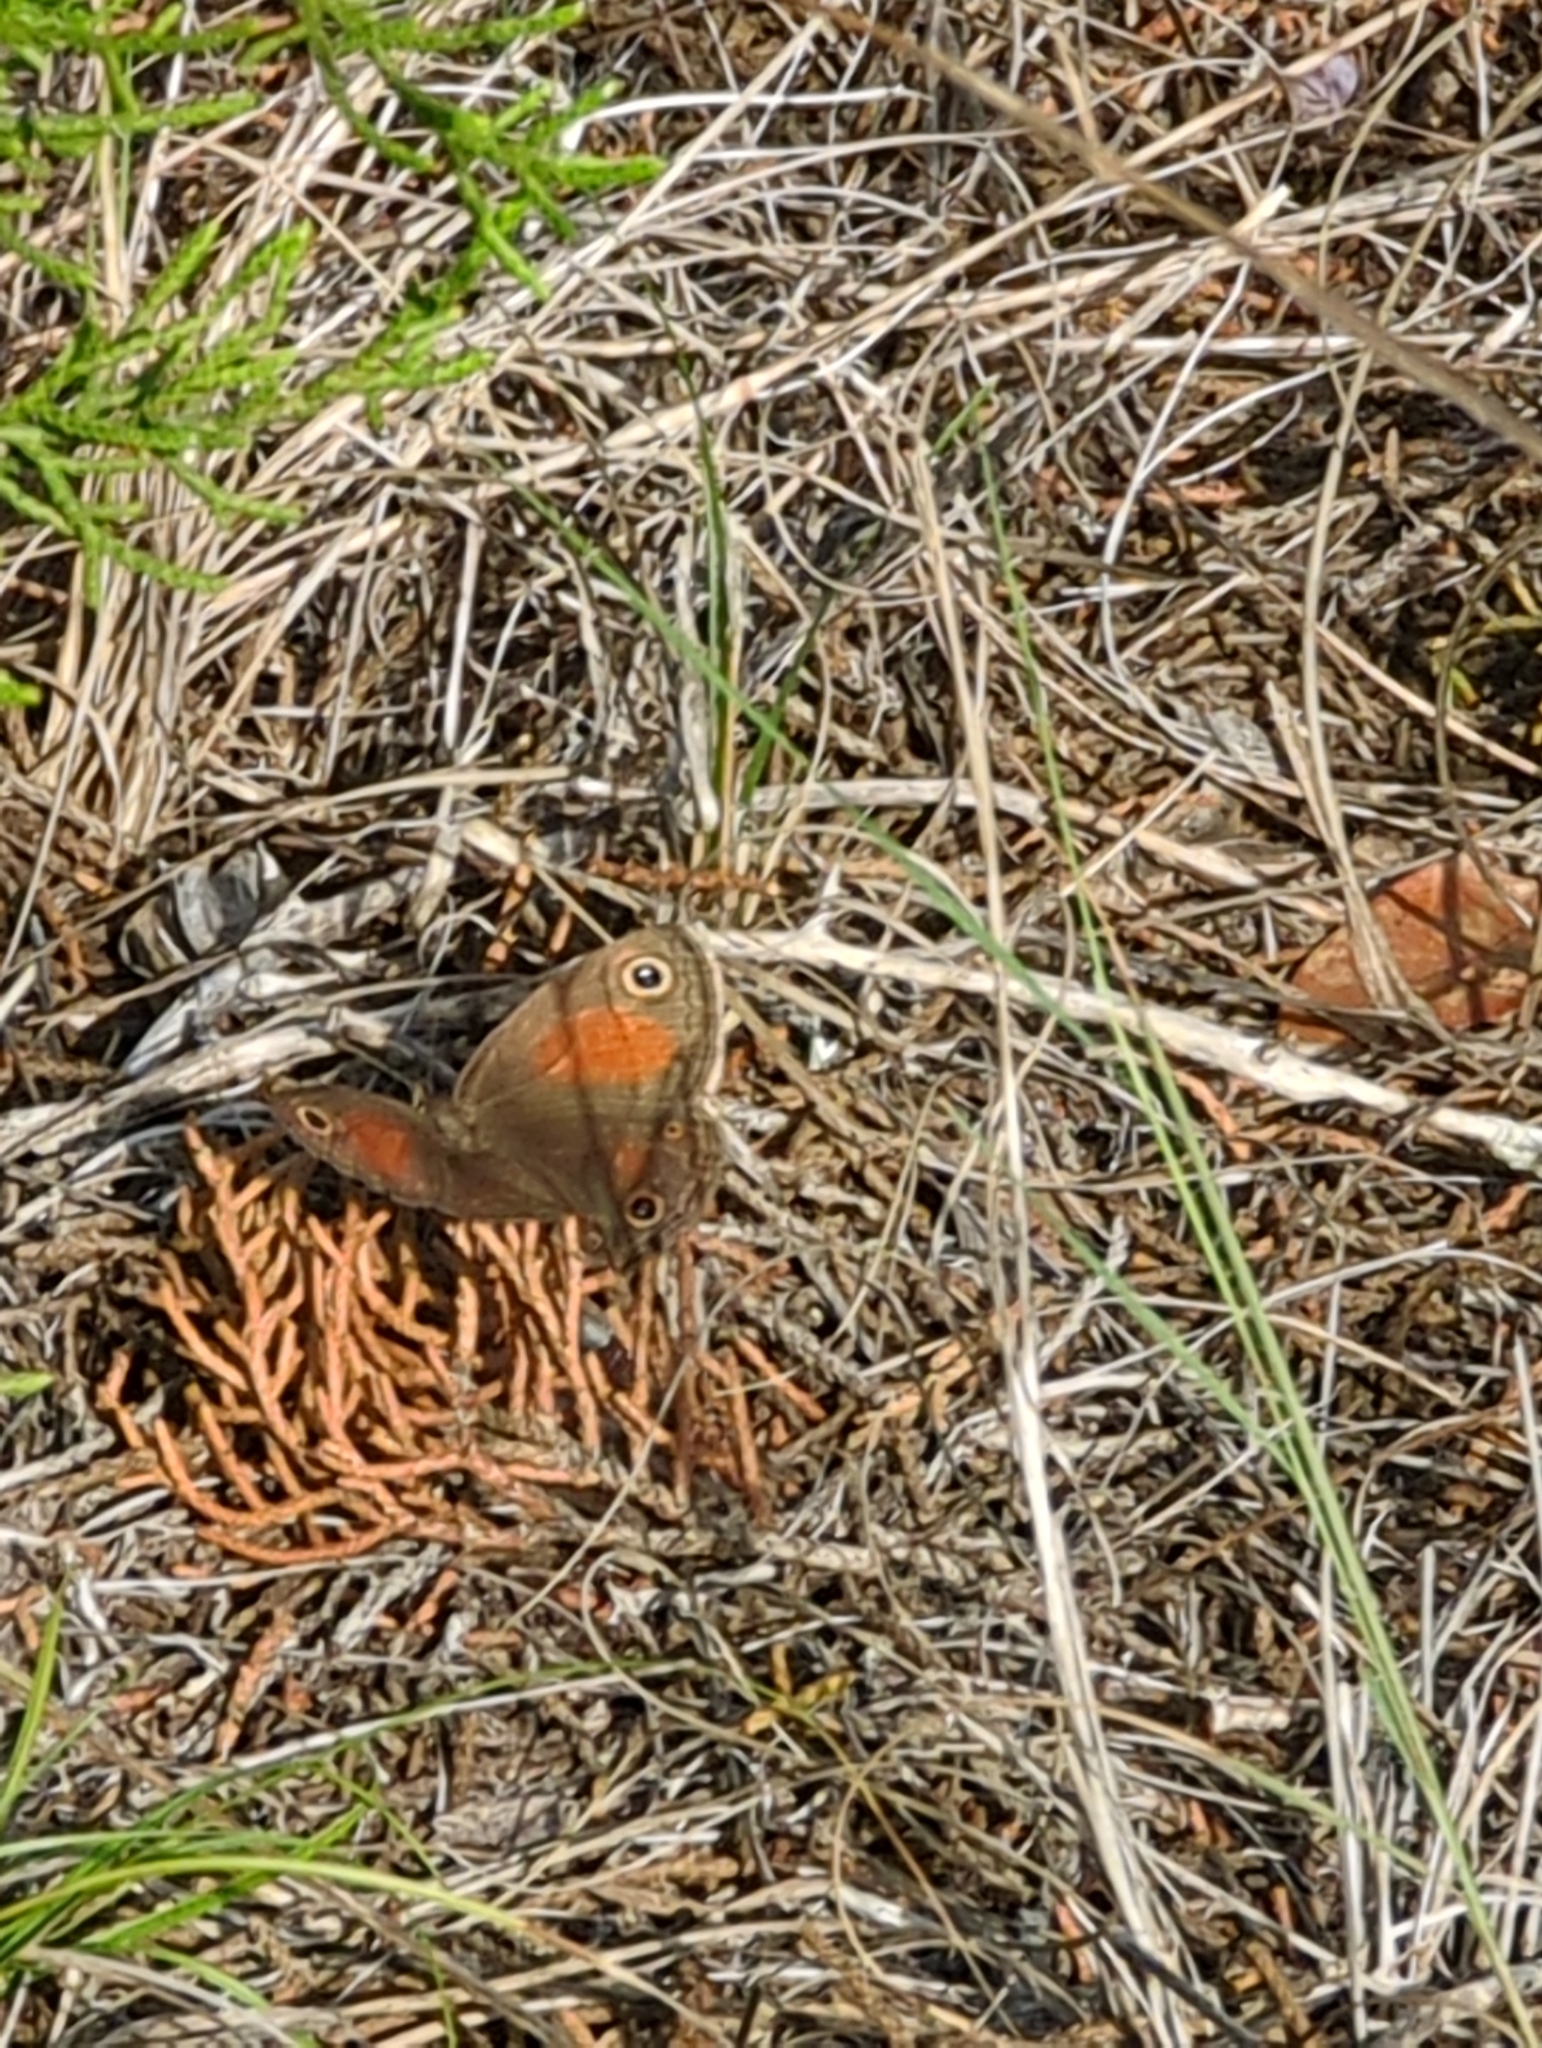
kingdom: Animalia
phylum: Arthropoda
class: Insecta
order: Lepidoptera
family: Nymphalidae
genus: Euptychia
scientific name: Euptychia Cissia rubricata
